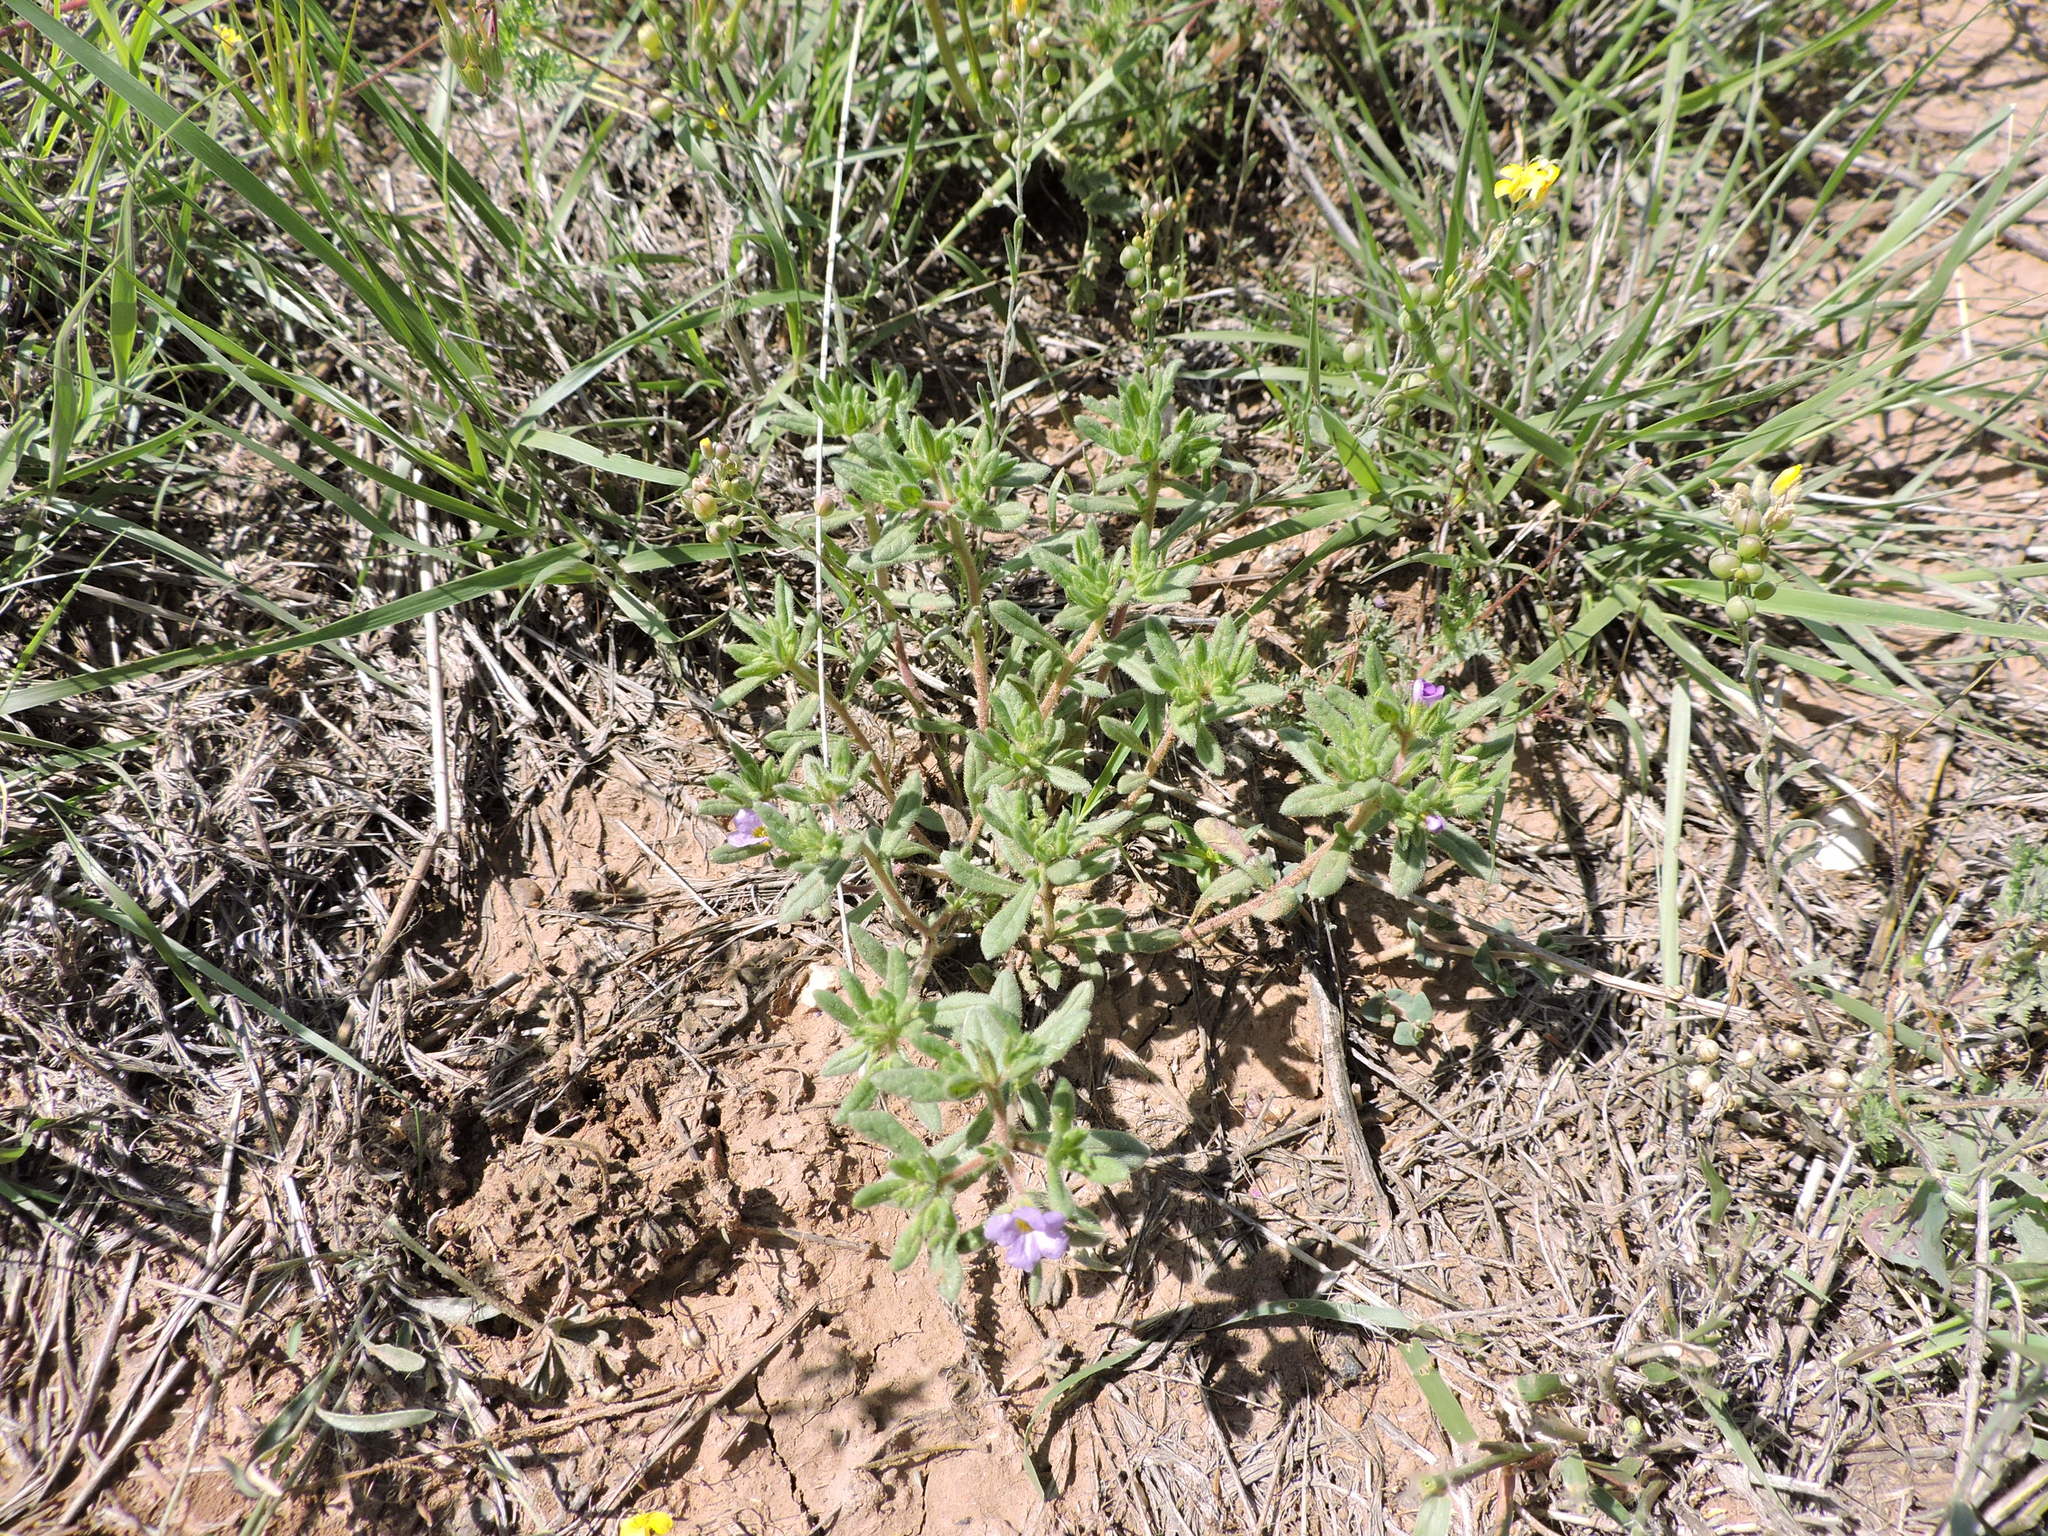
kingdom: Plantae
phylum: Tracheophyta
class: Magnoliopsida
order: Boraginales
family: Namaceae
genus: Nama
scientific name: Nama hispida
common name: Bristly nama
